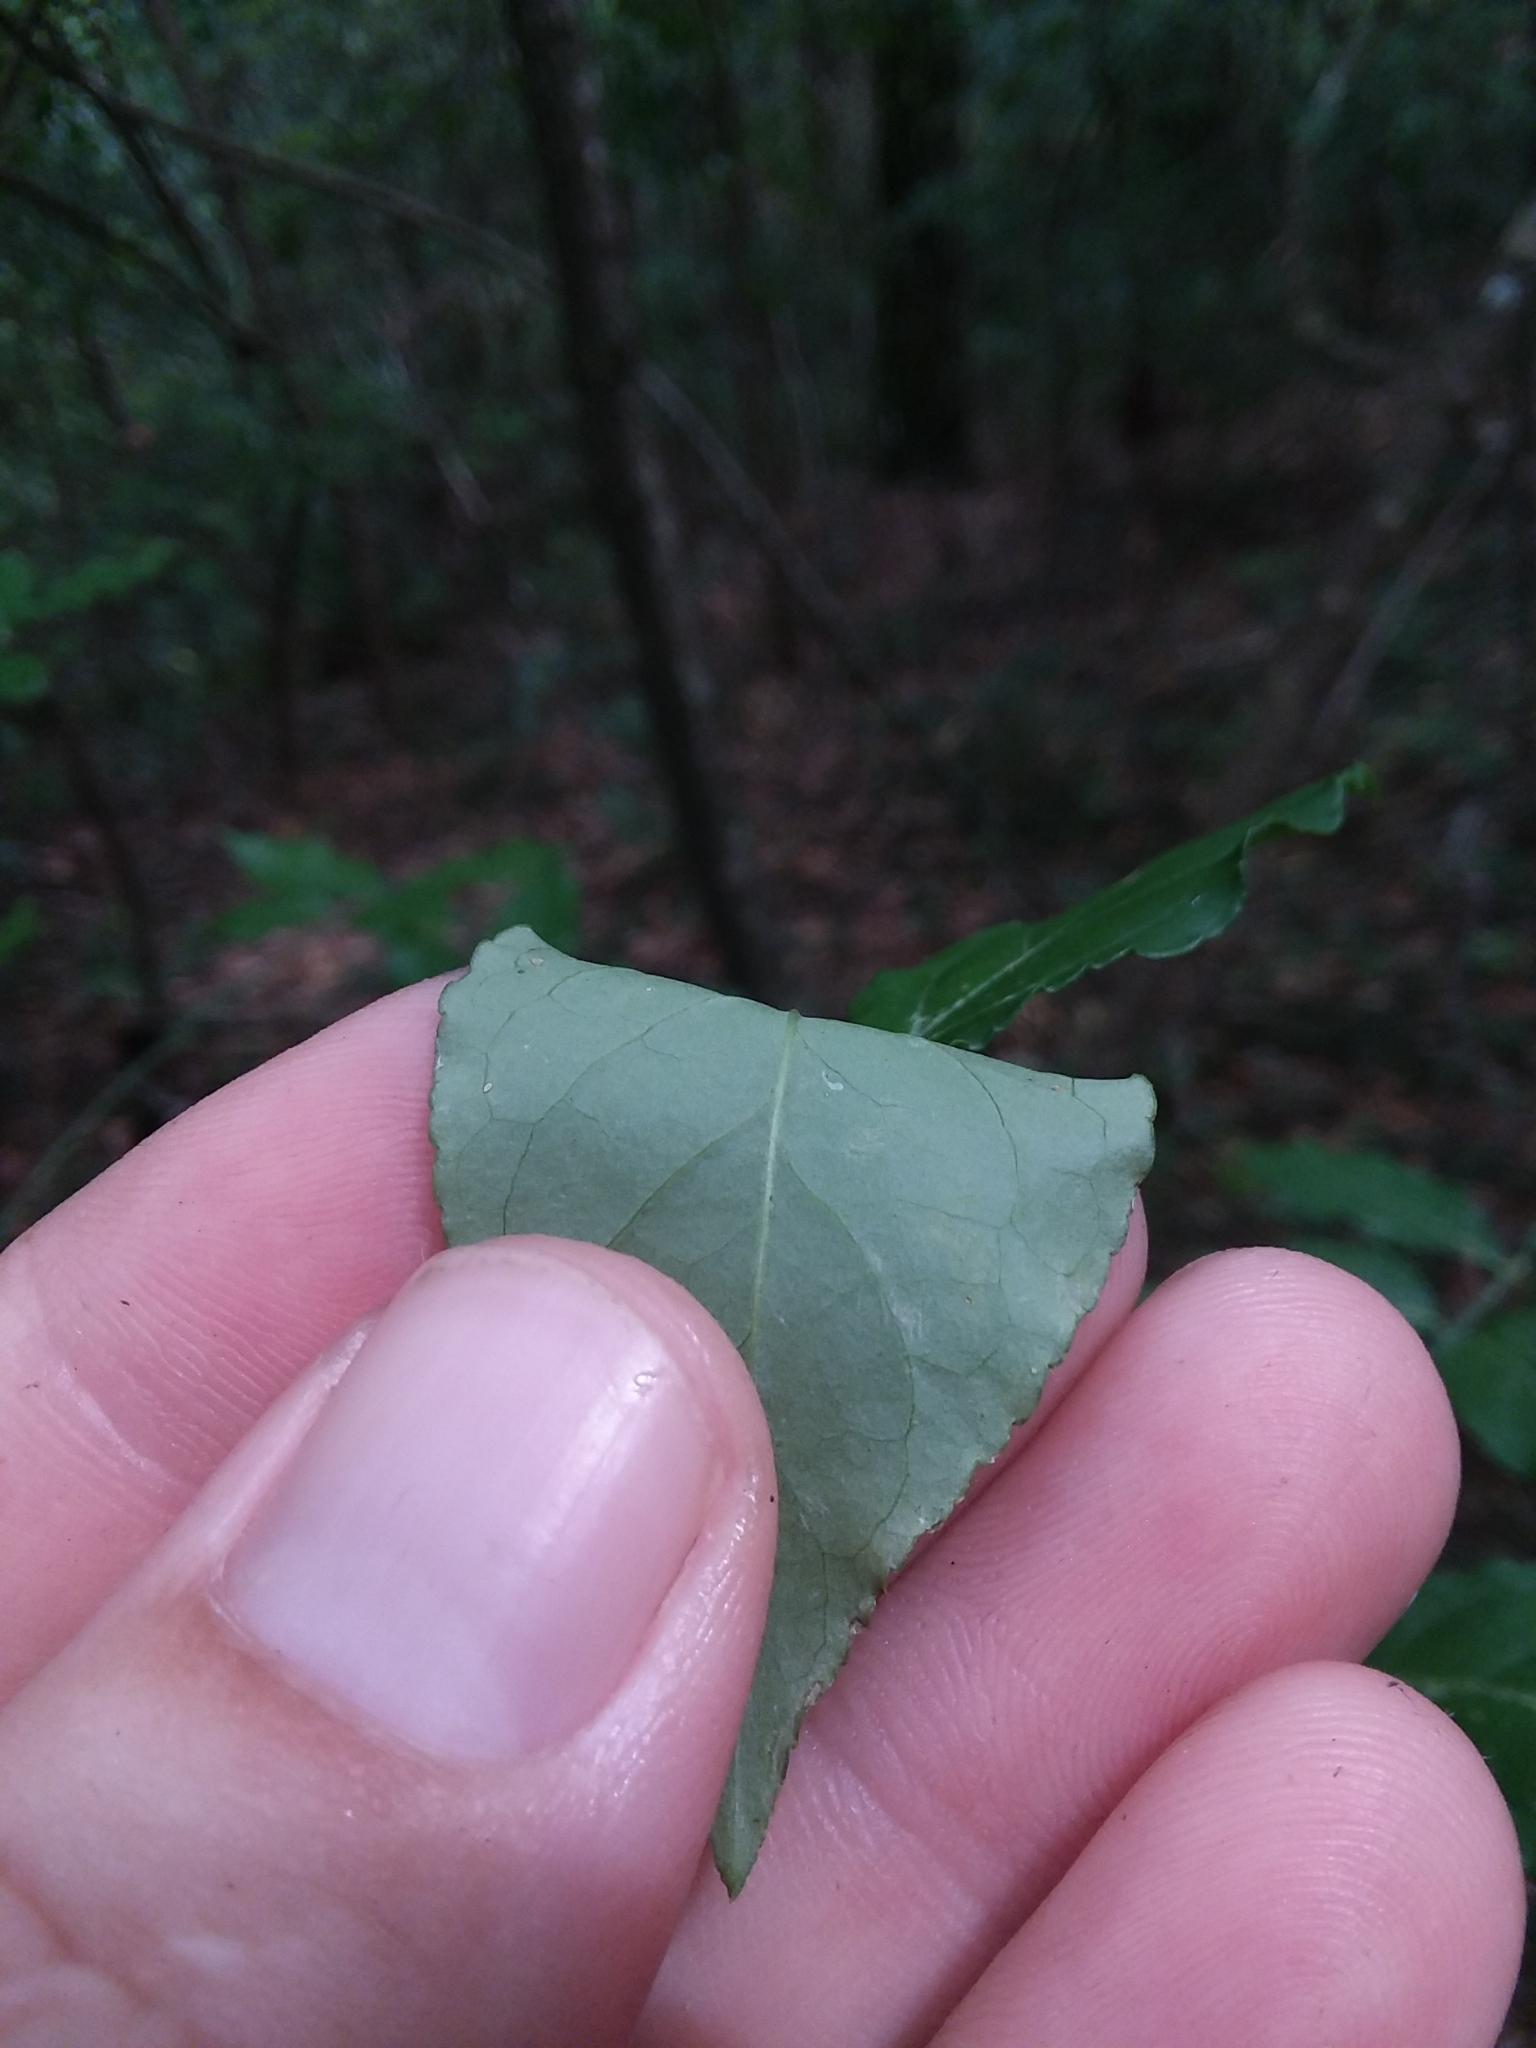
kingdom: Plantae
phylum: Tracheophyta
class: Magnoliopsida
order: Celastrales
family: Celastraceae
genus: Euonymus
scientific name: Euonymus americanus
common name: Bursting-heart
